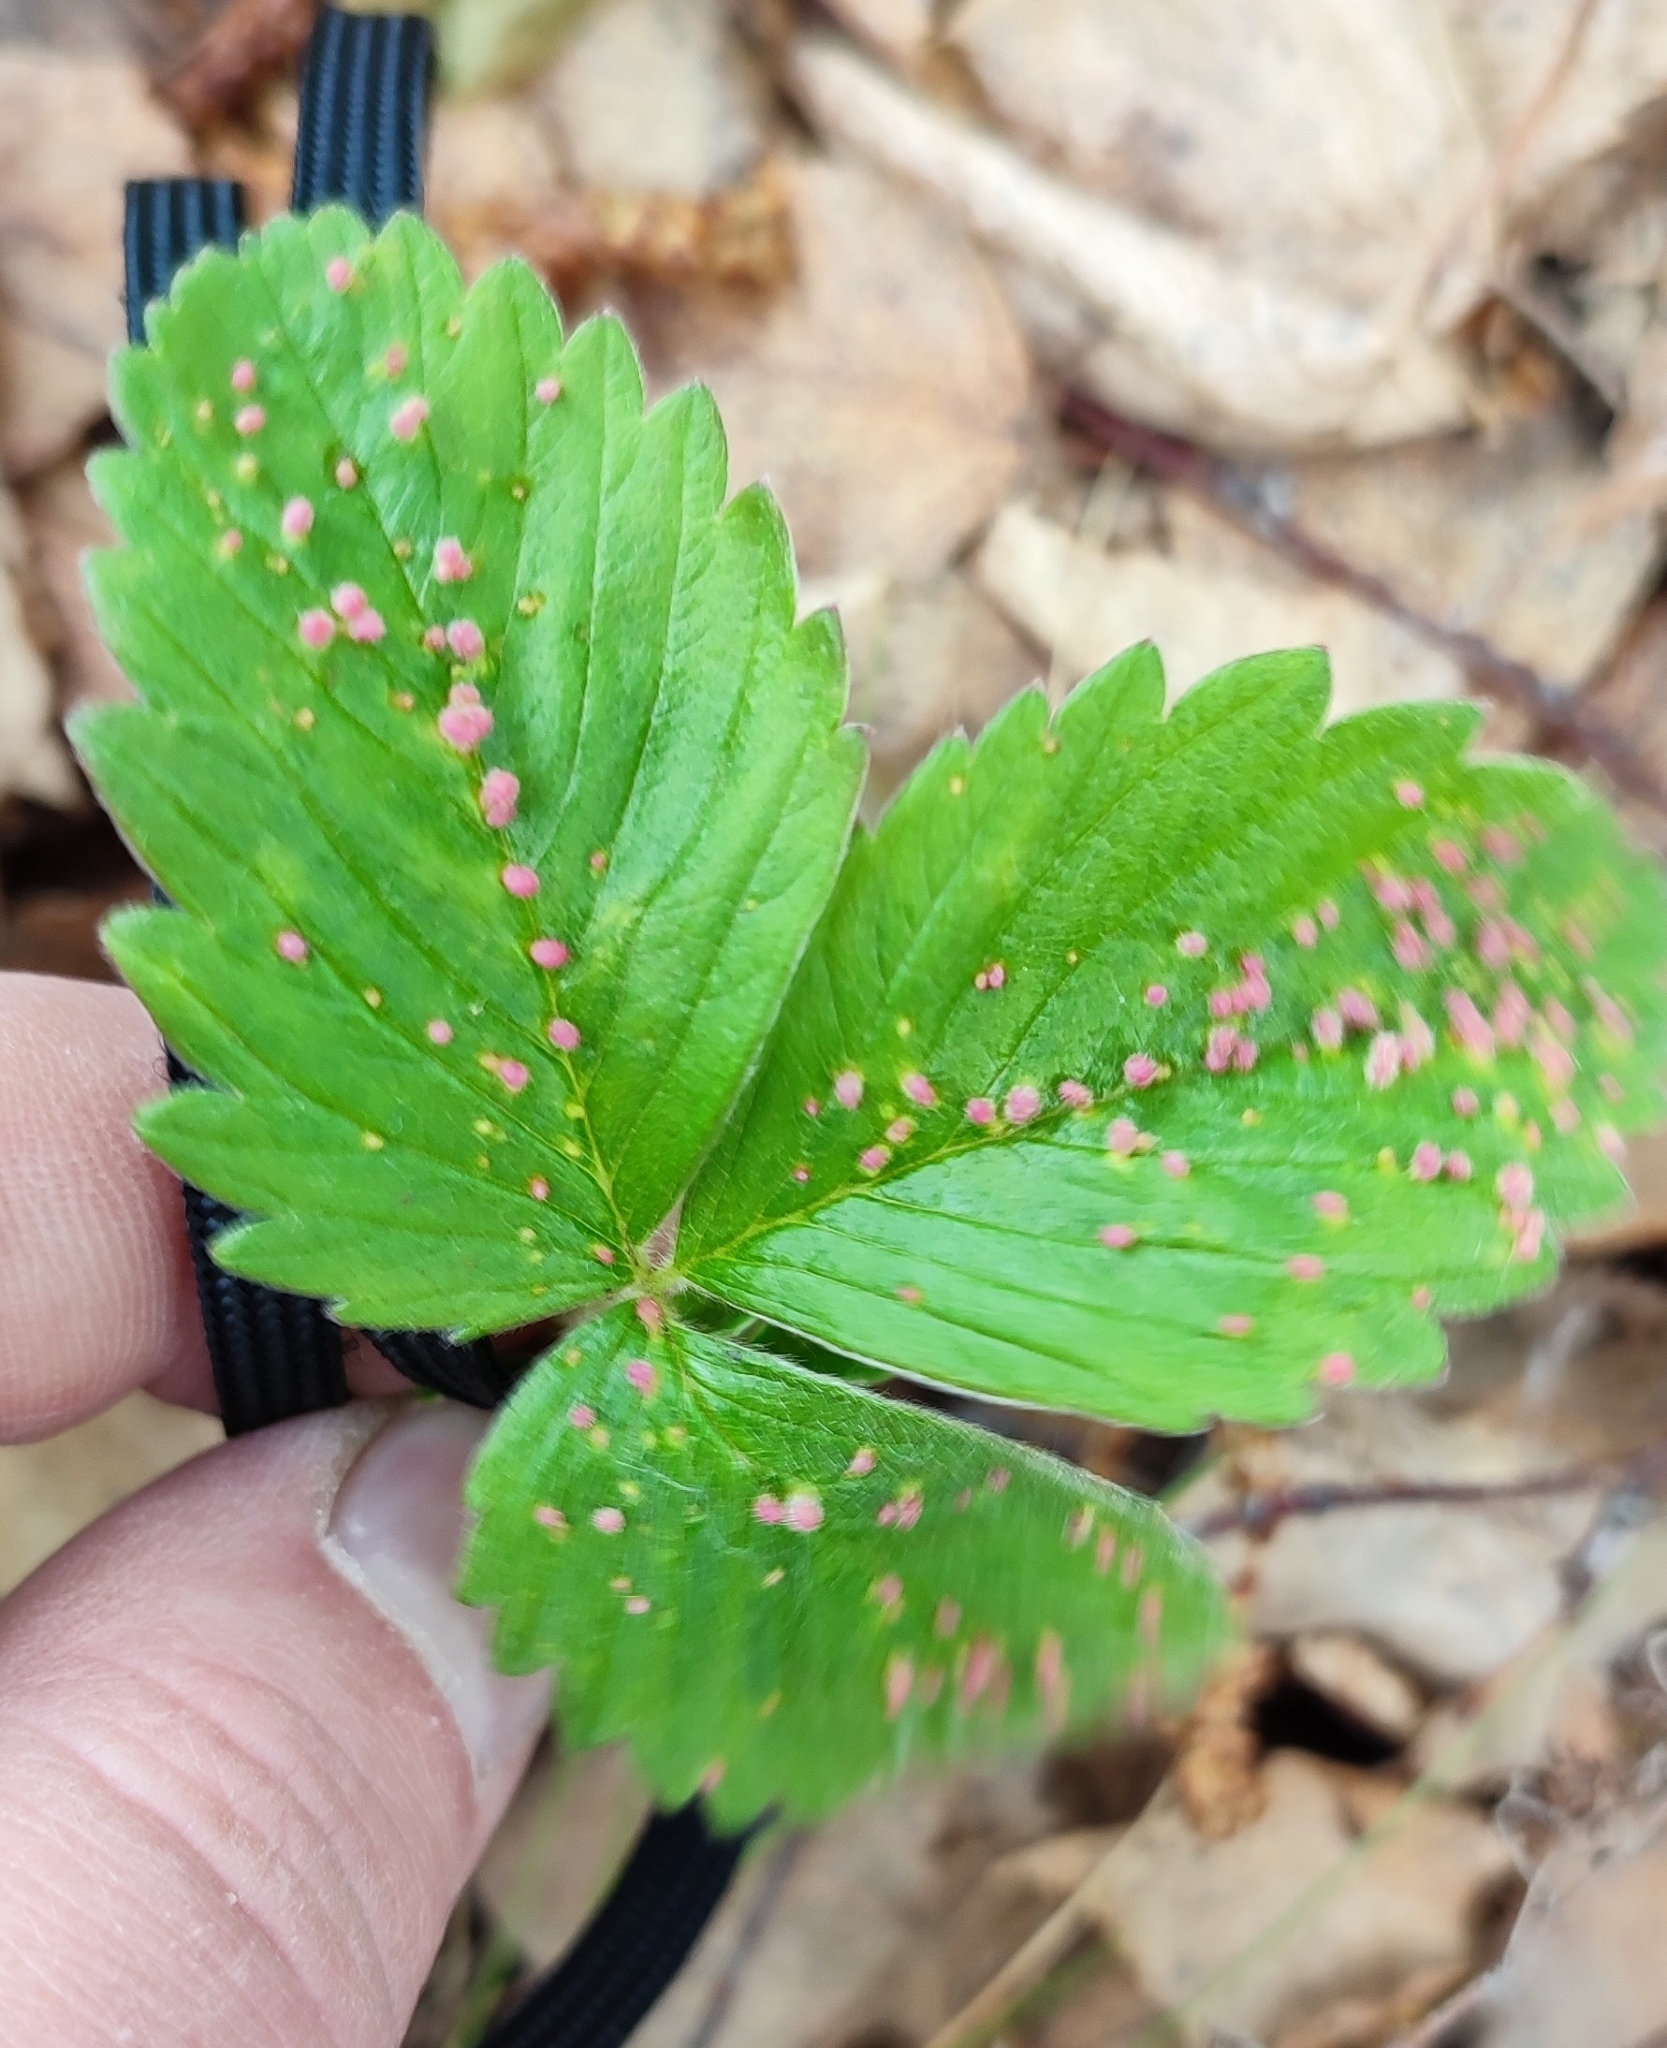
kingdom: Plantae
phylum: Tracheophyta
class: Magnoliopsida
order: Rosales
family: Rosaceae
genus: Fragaria
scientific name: Fragaria viridis
